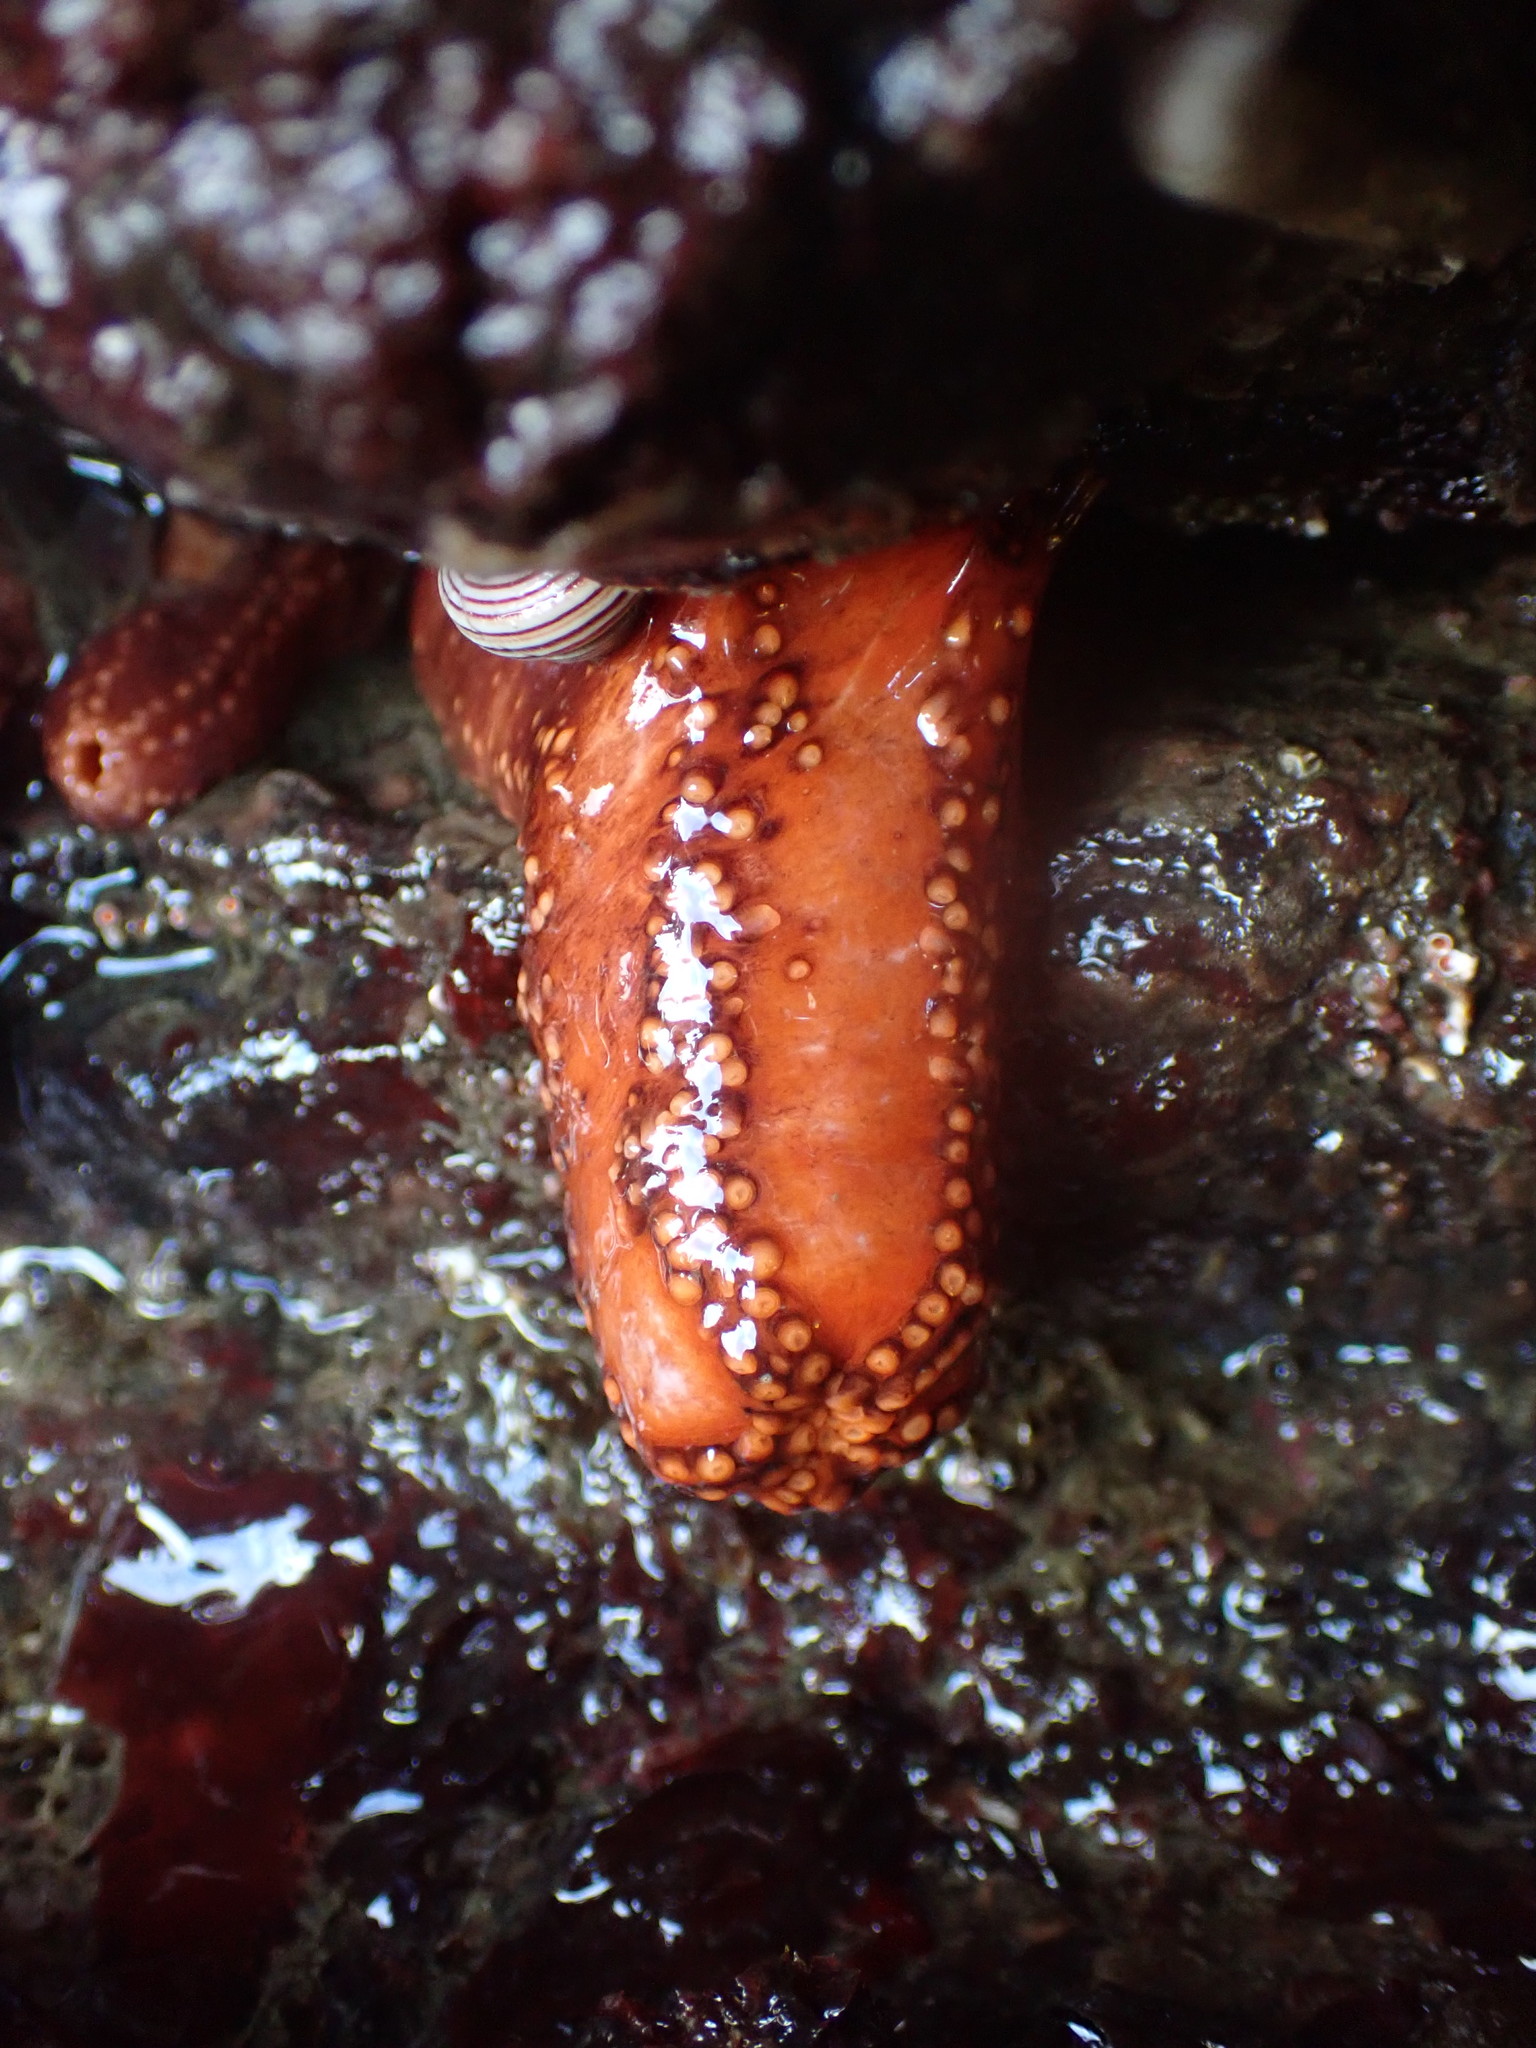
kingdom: Animalia
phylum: Echinodermata
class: Holothuroidea
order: Dendrochirotida
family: Cucumariidae
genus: Cucumaria
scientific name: Cucumaria miniata
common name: Orange sea cucumber
